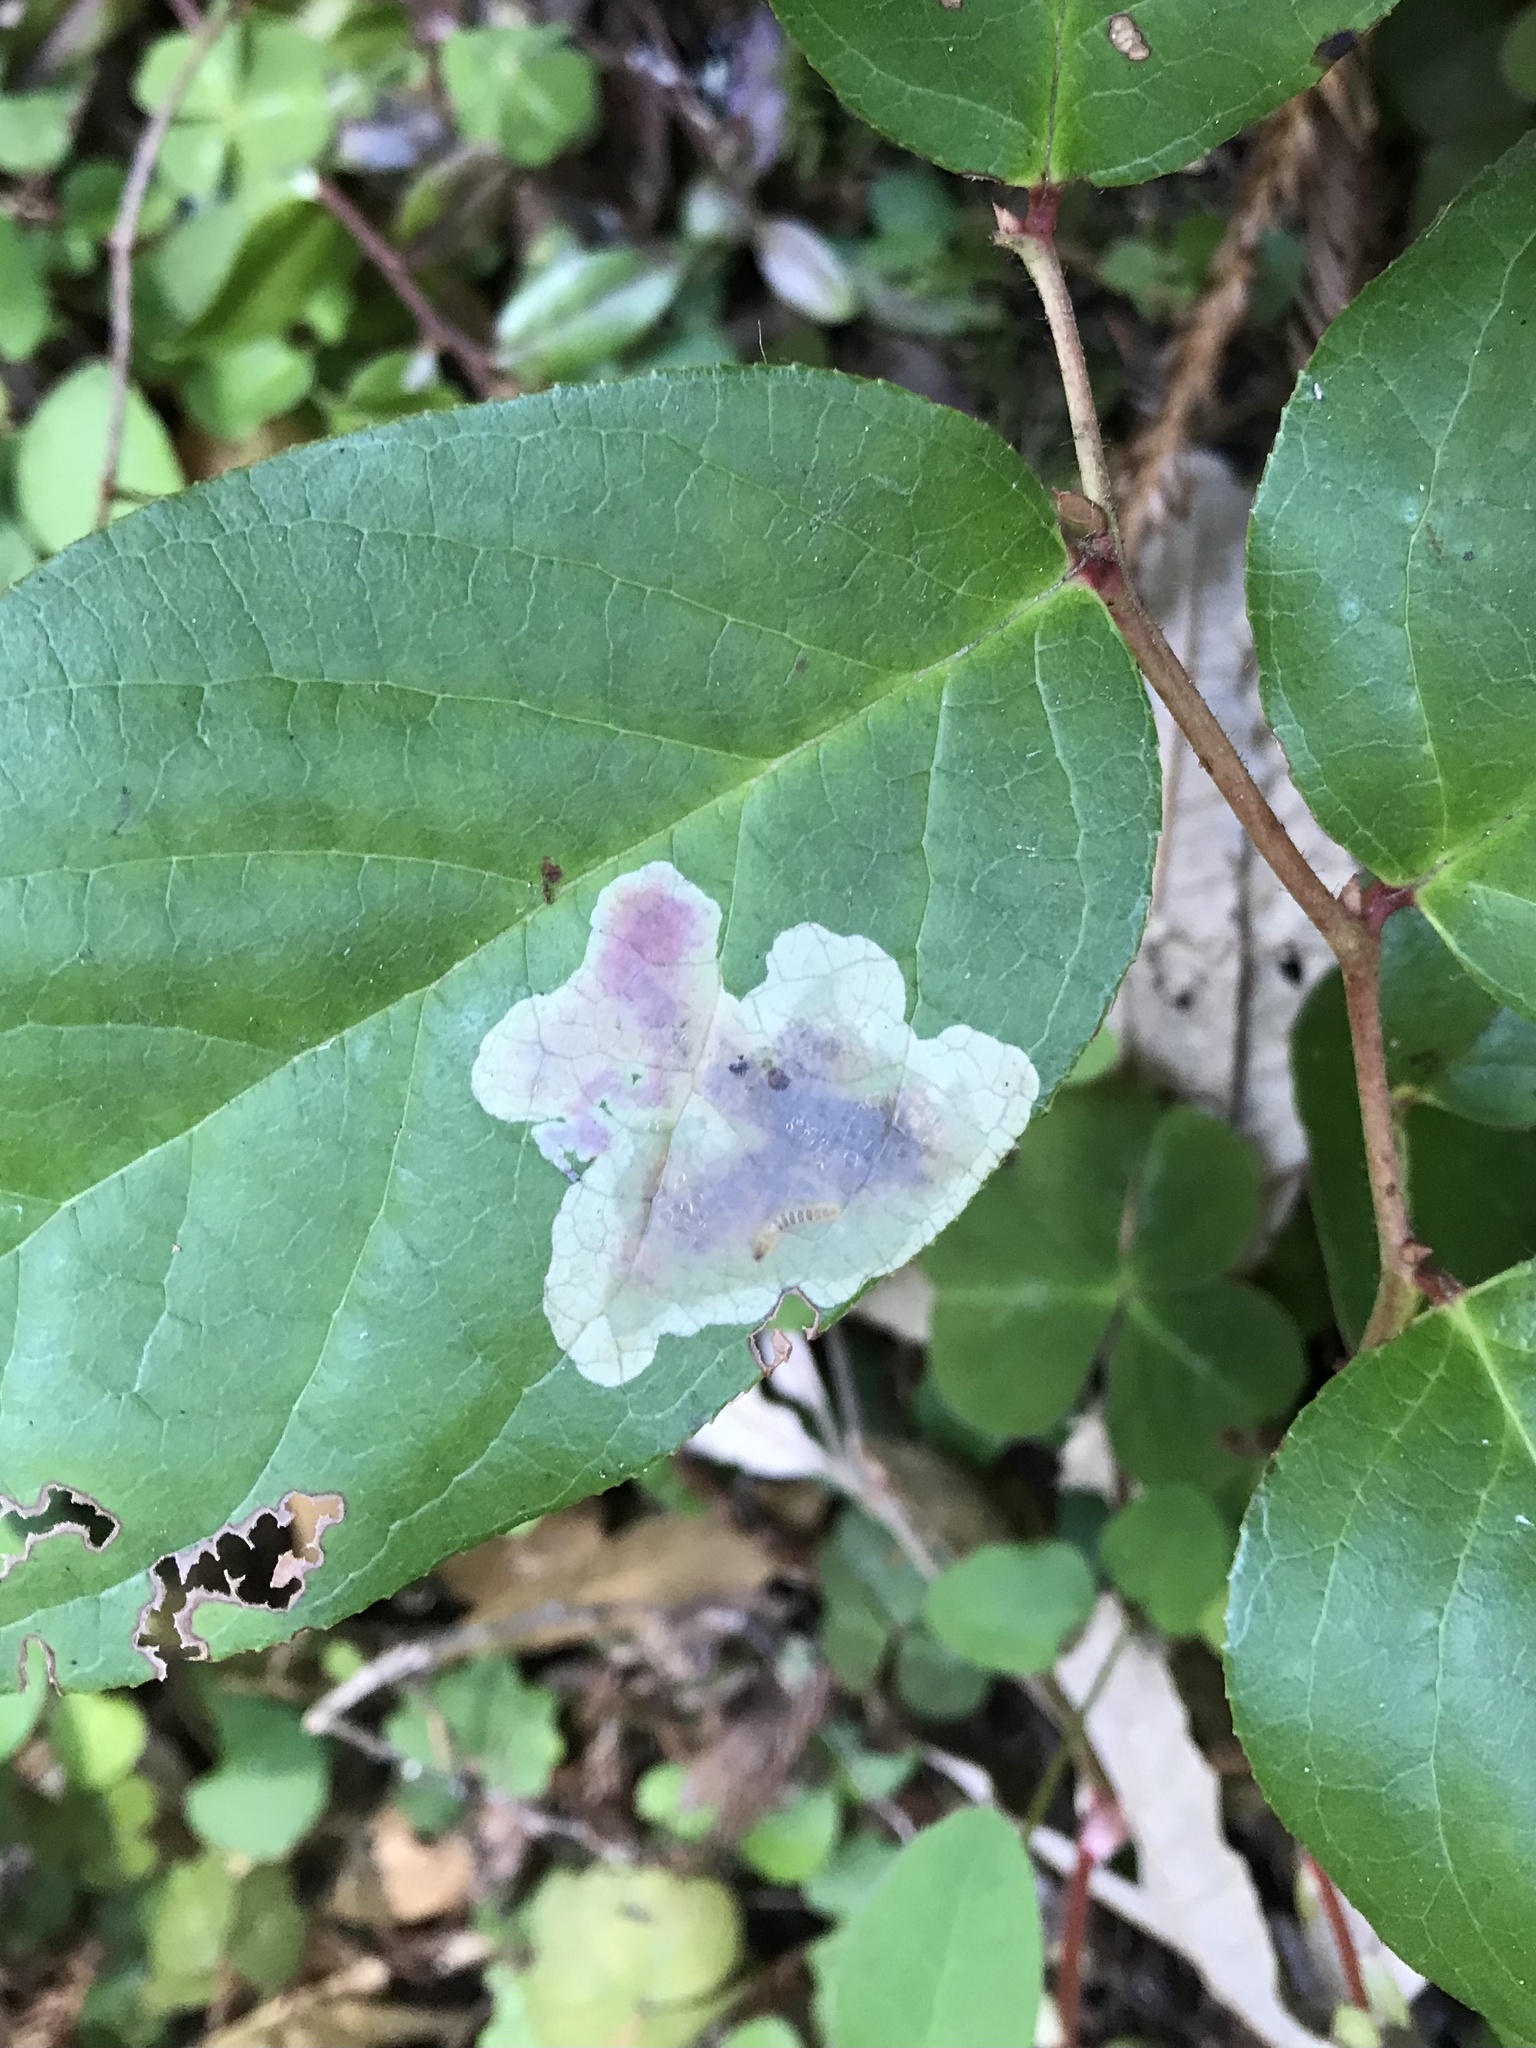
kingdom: Animalia
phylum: Arthropoda
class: Insecta
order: Lepidoptera
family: Gracillariidae
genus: Cameraria
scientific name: Cameraria gaultheriella
